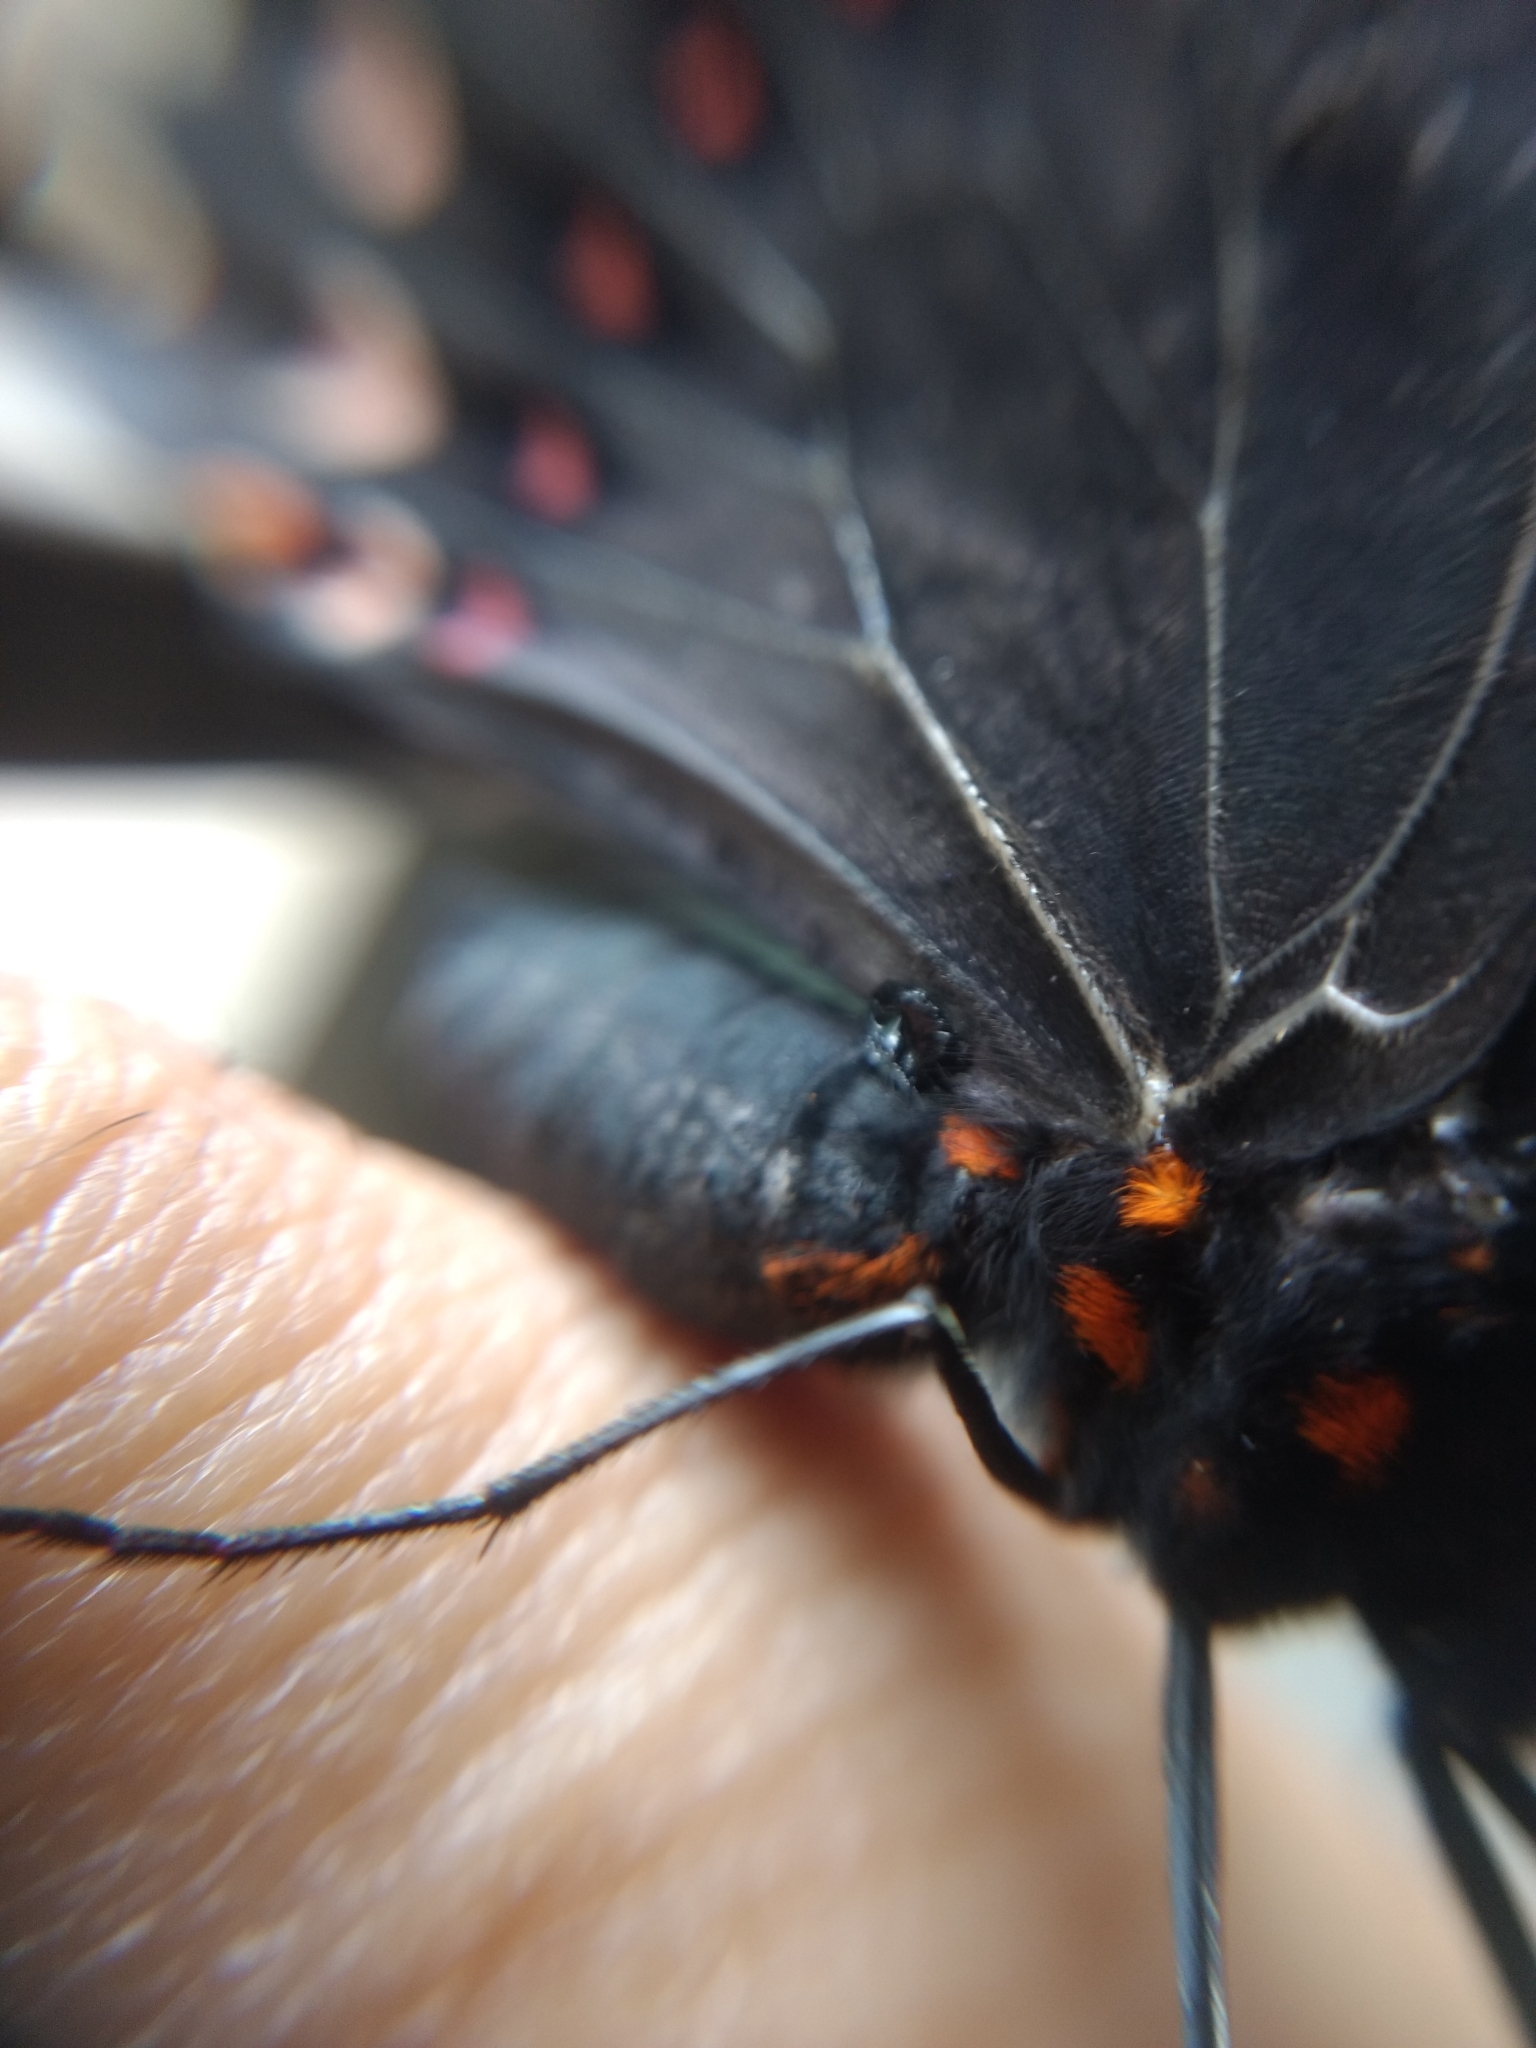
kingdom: Animalia
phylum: Arthropoda
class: Insecta
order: Lepidoptera
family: Papilionidae
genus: Heraclides
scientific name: Heraclides rogeri
